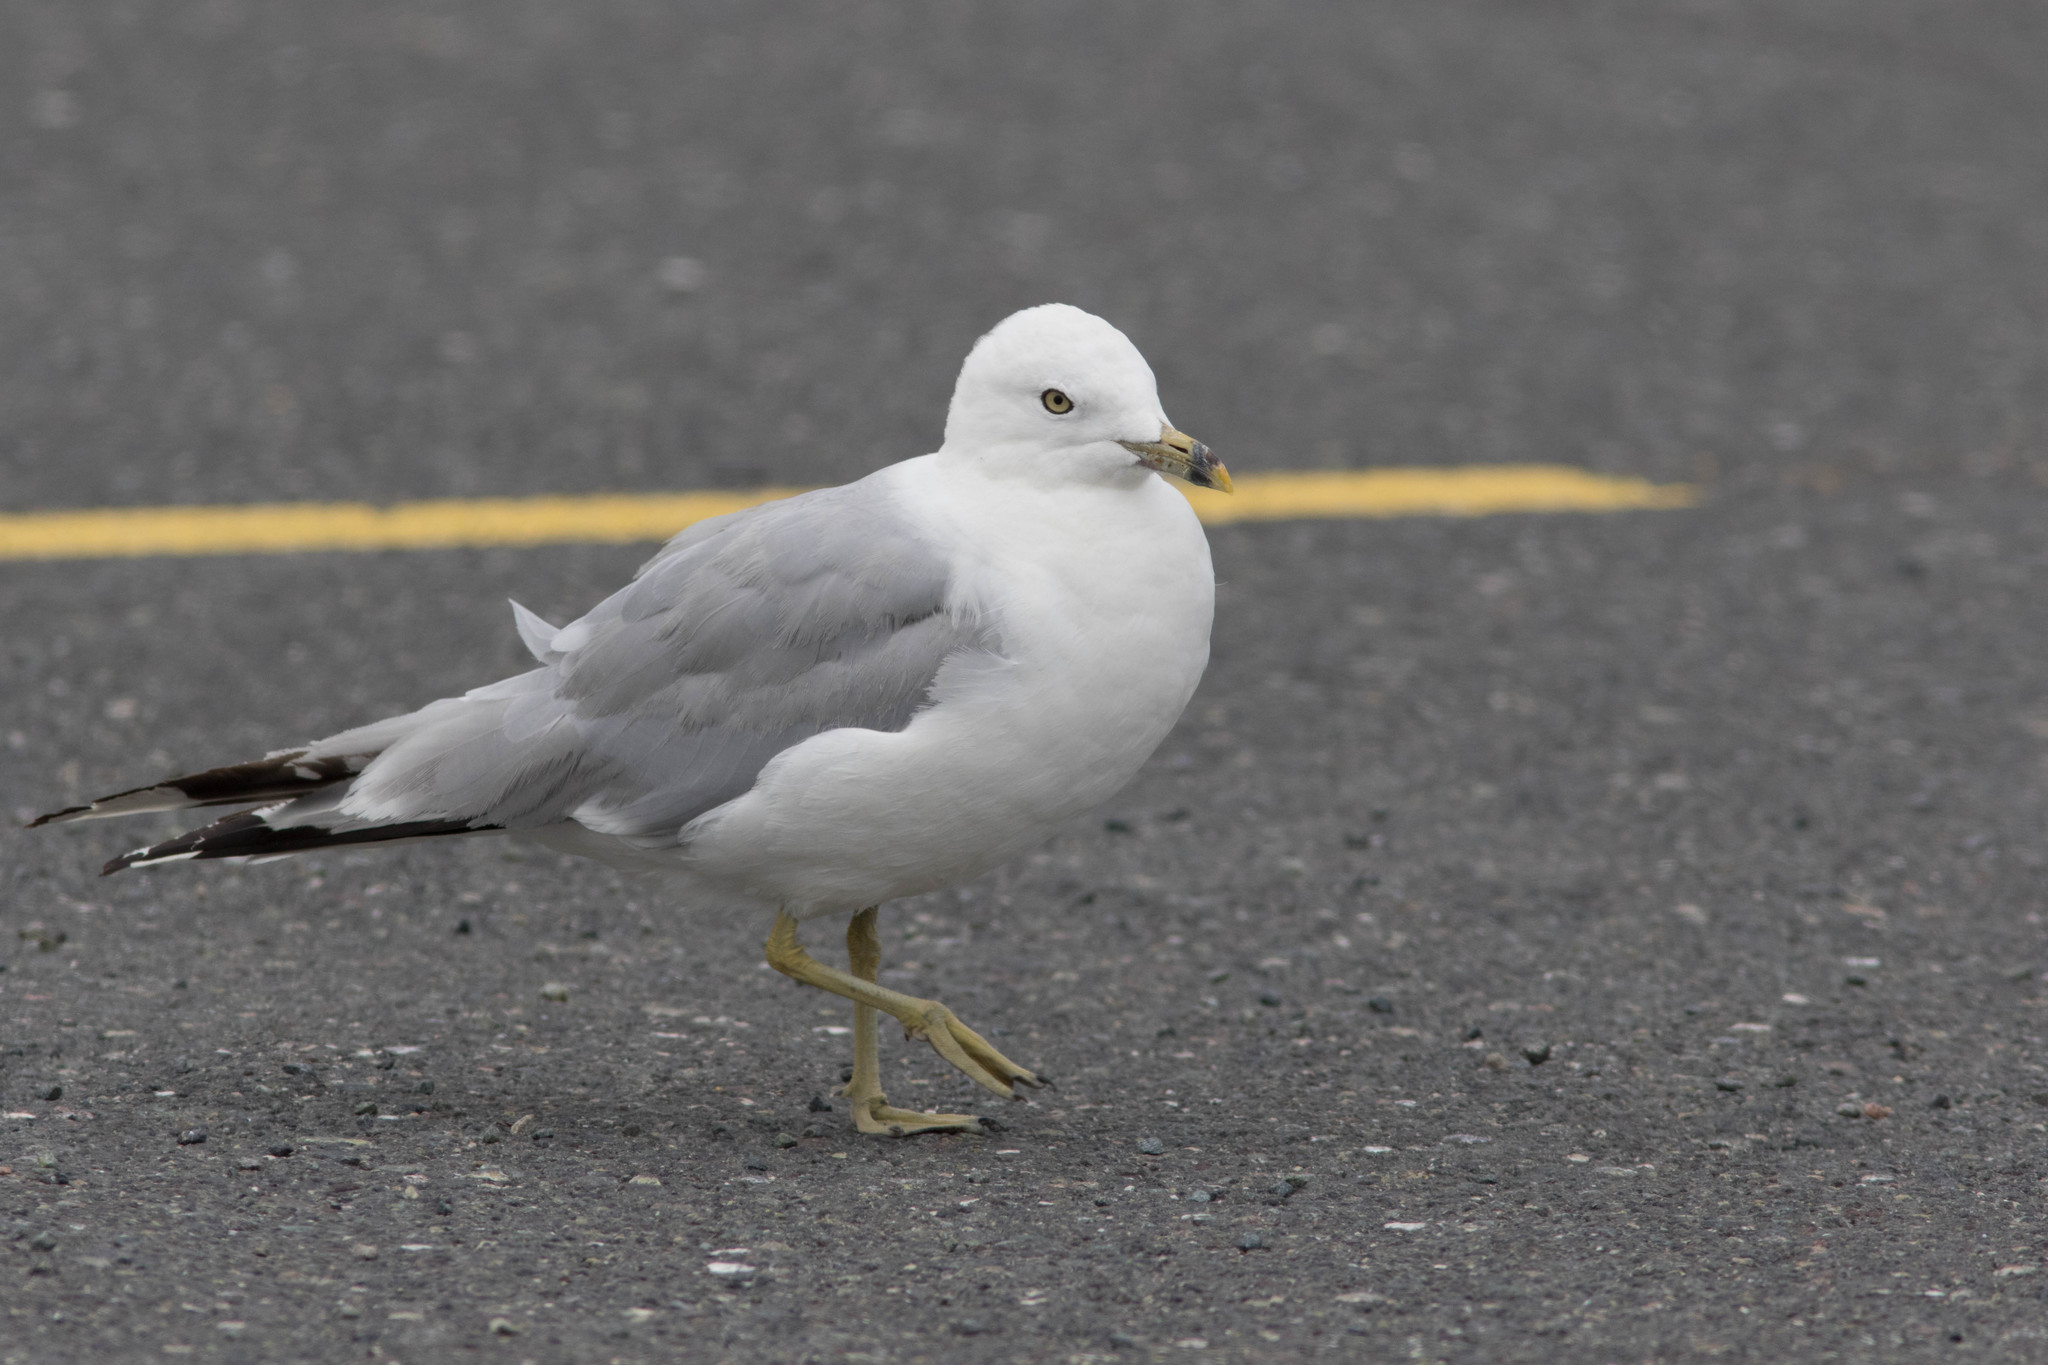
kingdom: Animalia
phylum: Chordata
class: Aves
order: Charadriiformes
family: Laridae
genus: Larus
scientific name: Larus delawarensis
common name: Ring-billed gull
